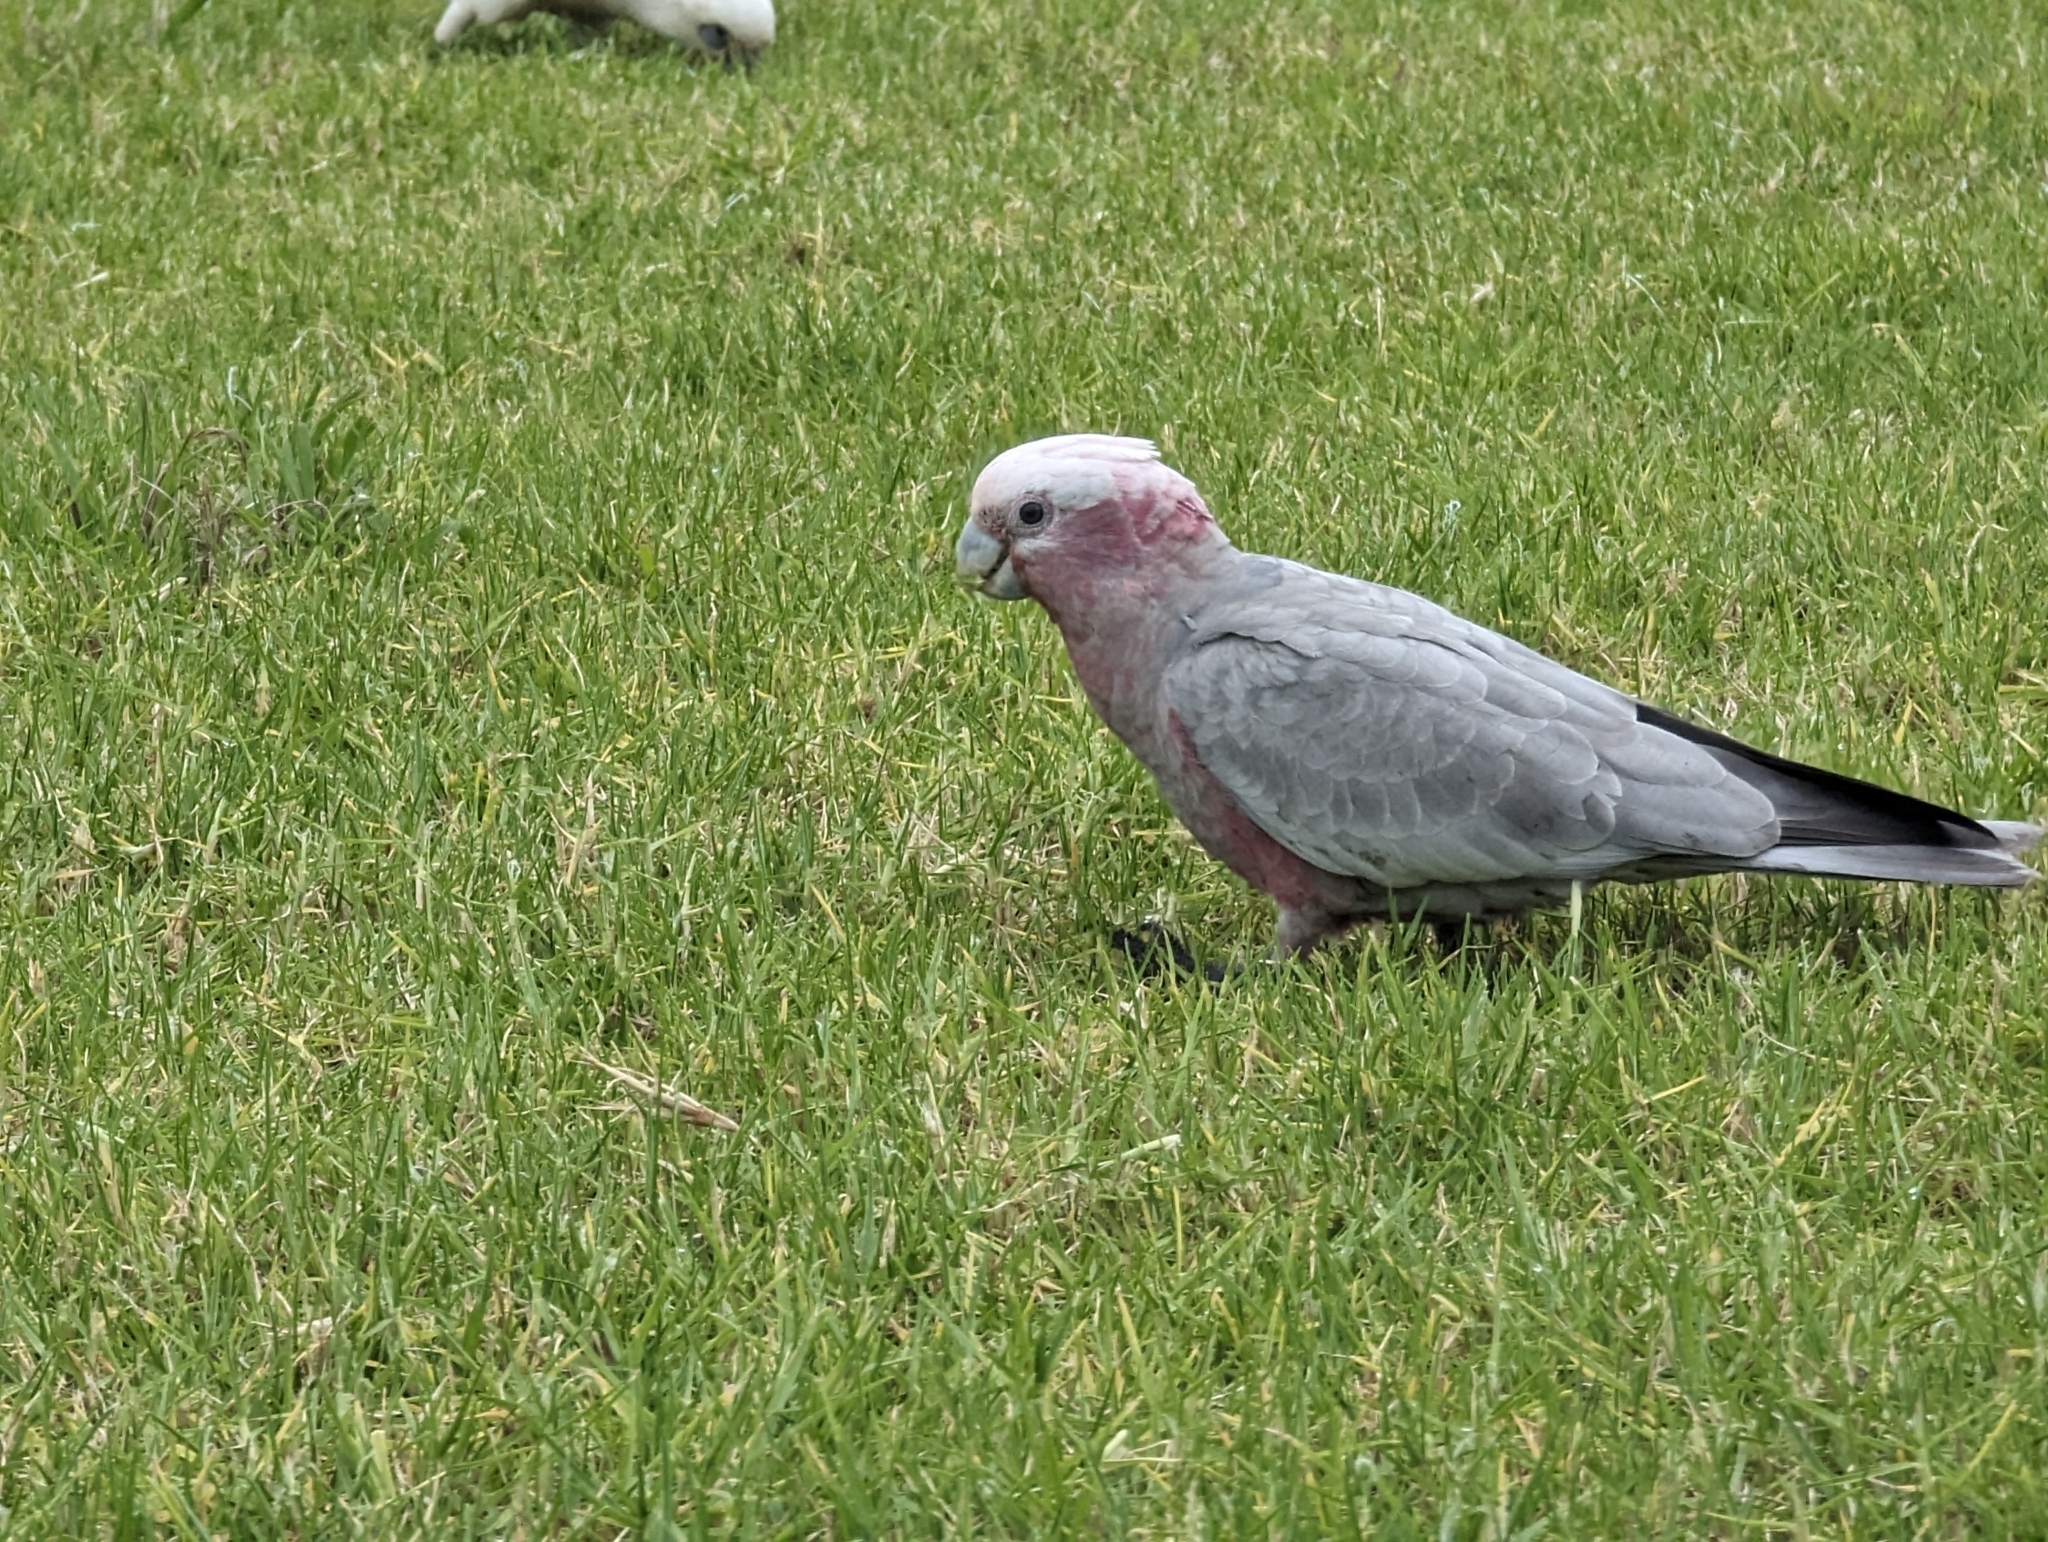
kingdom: Animalia
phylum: Chordata
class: Aves
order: Psittaciformes
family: Psittacidae
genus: Eolophus
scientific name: Eolophus roseicapilla
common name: Galah
